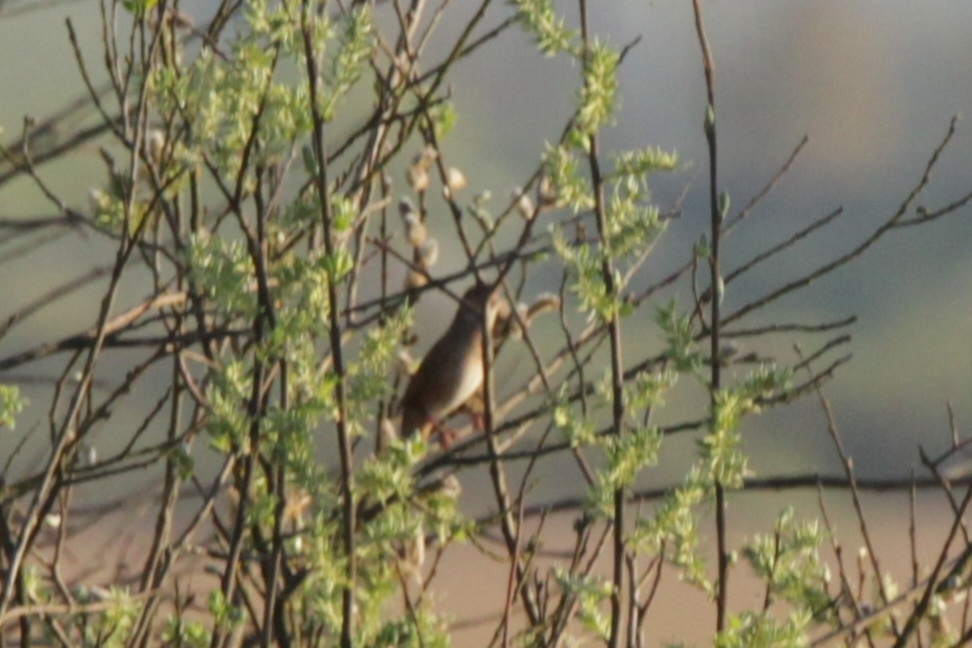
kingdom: Animalia
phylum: Chordata
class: Aves
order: Passeriformes
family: Locustellidae
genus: Locustella
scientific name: Locustella luscinioides
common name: Savi's warbler
